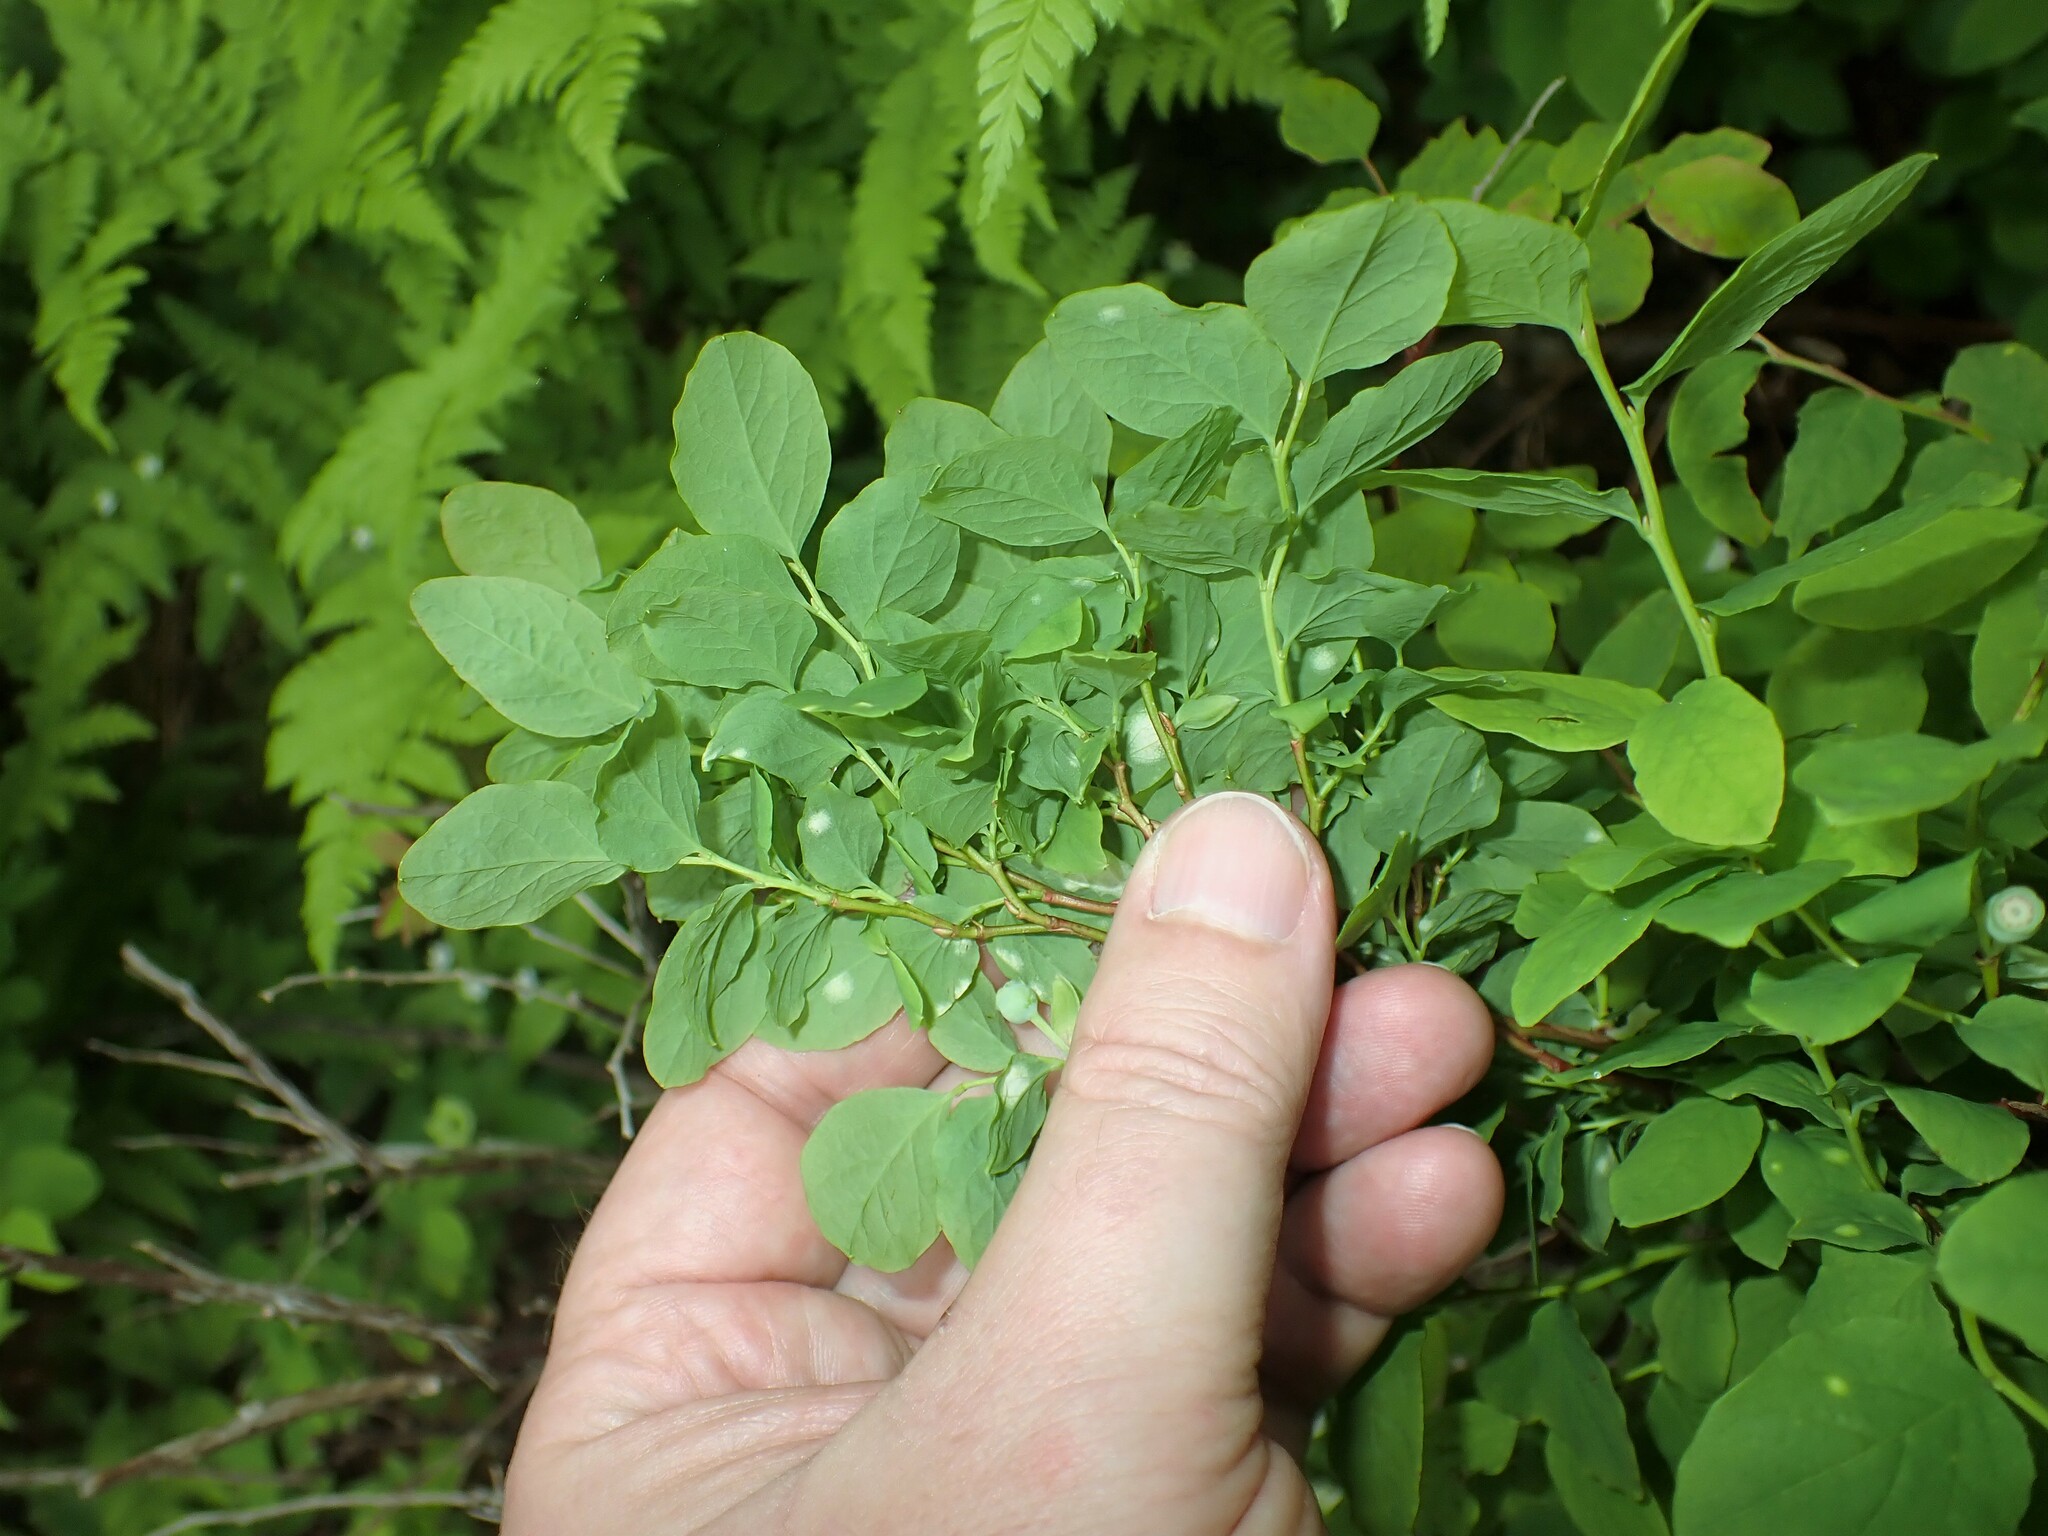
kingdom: Plantae
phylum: Tracheophyta
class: Magnoliopsida
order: Ericales
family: Ericaceae
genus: Vaccinium
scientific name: Vaccinium ovalifolium
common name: Early blueberry
